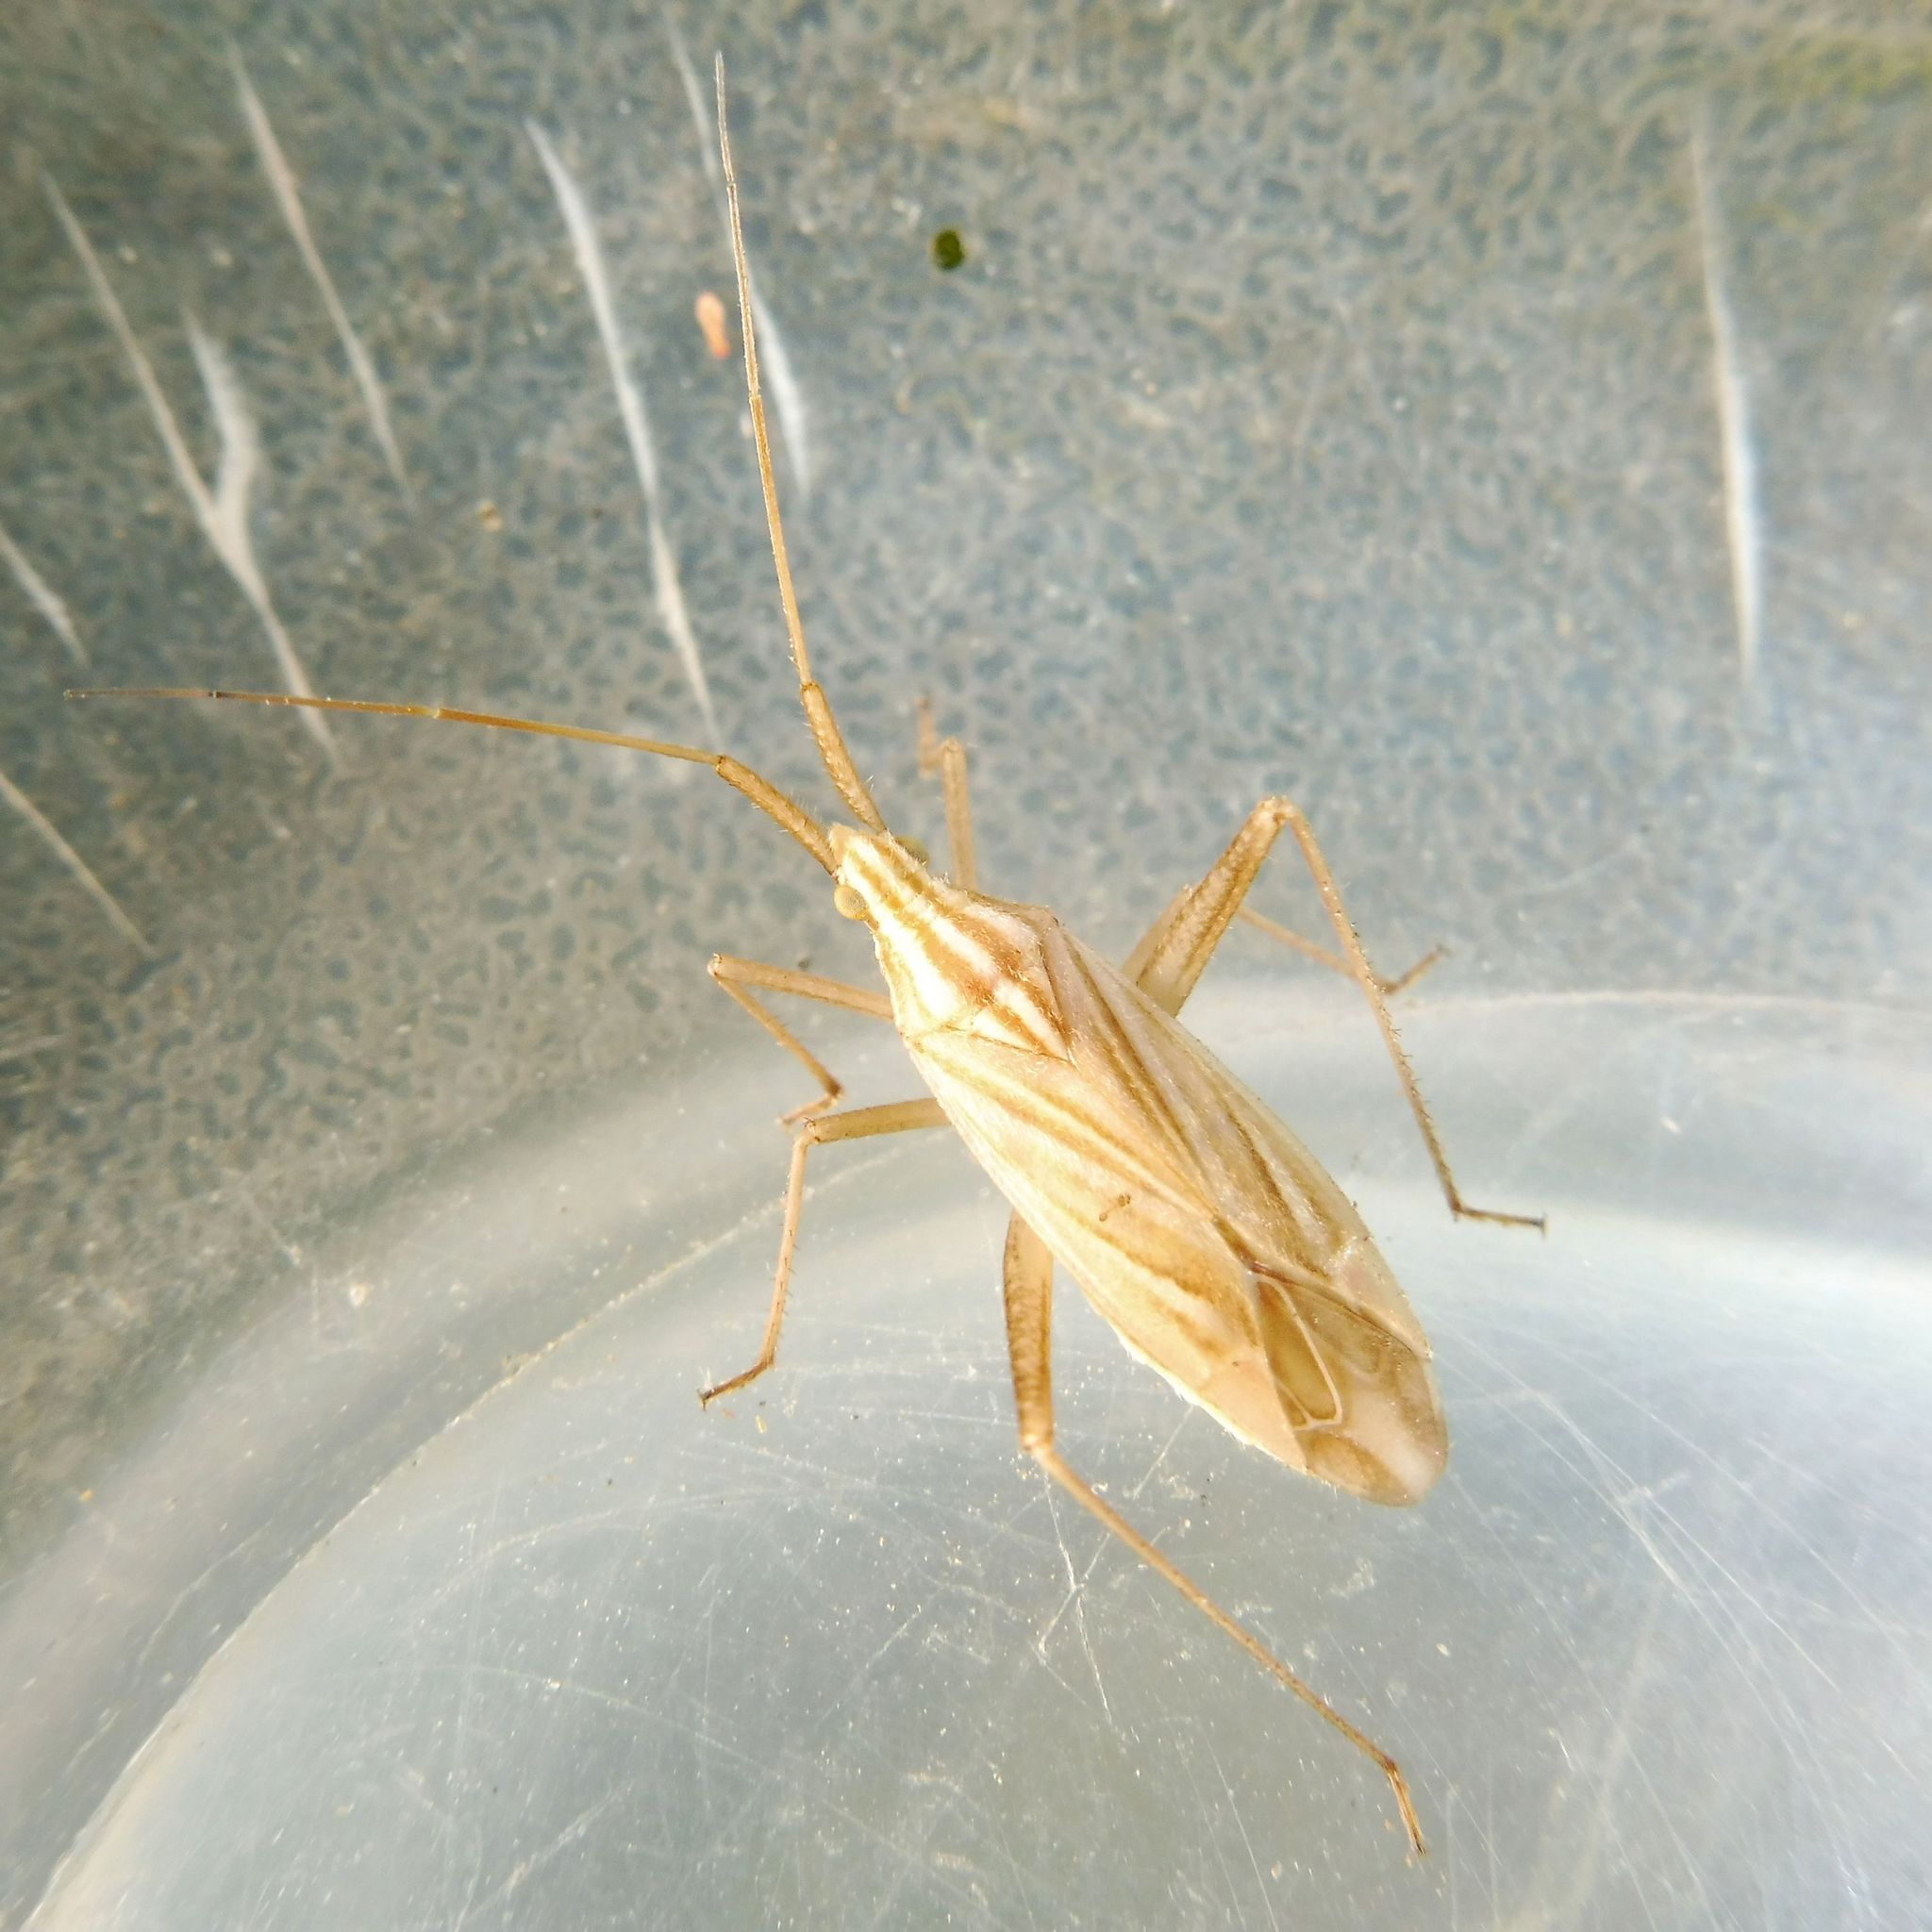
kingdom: Animalia
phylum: Arthropoda
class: Insecta
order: Hemiptera
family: Miridae
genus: Miridius
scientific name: Miridius quadrivirgatus
